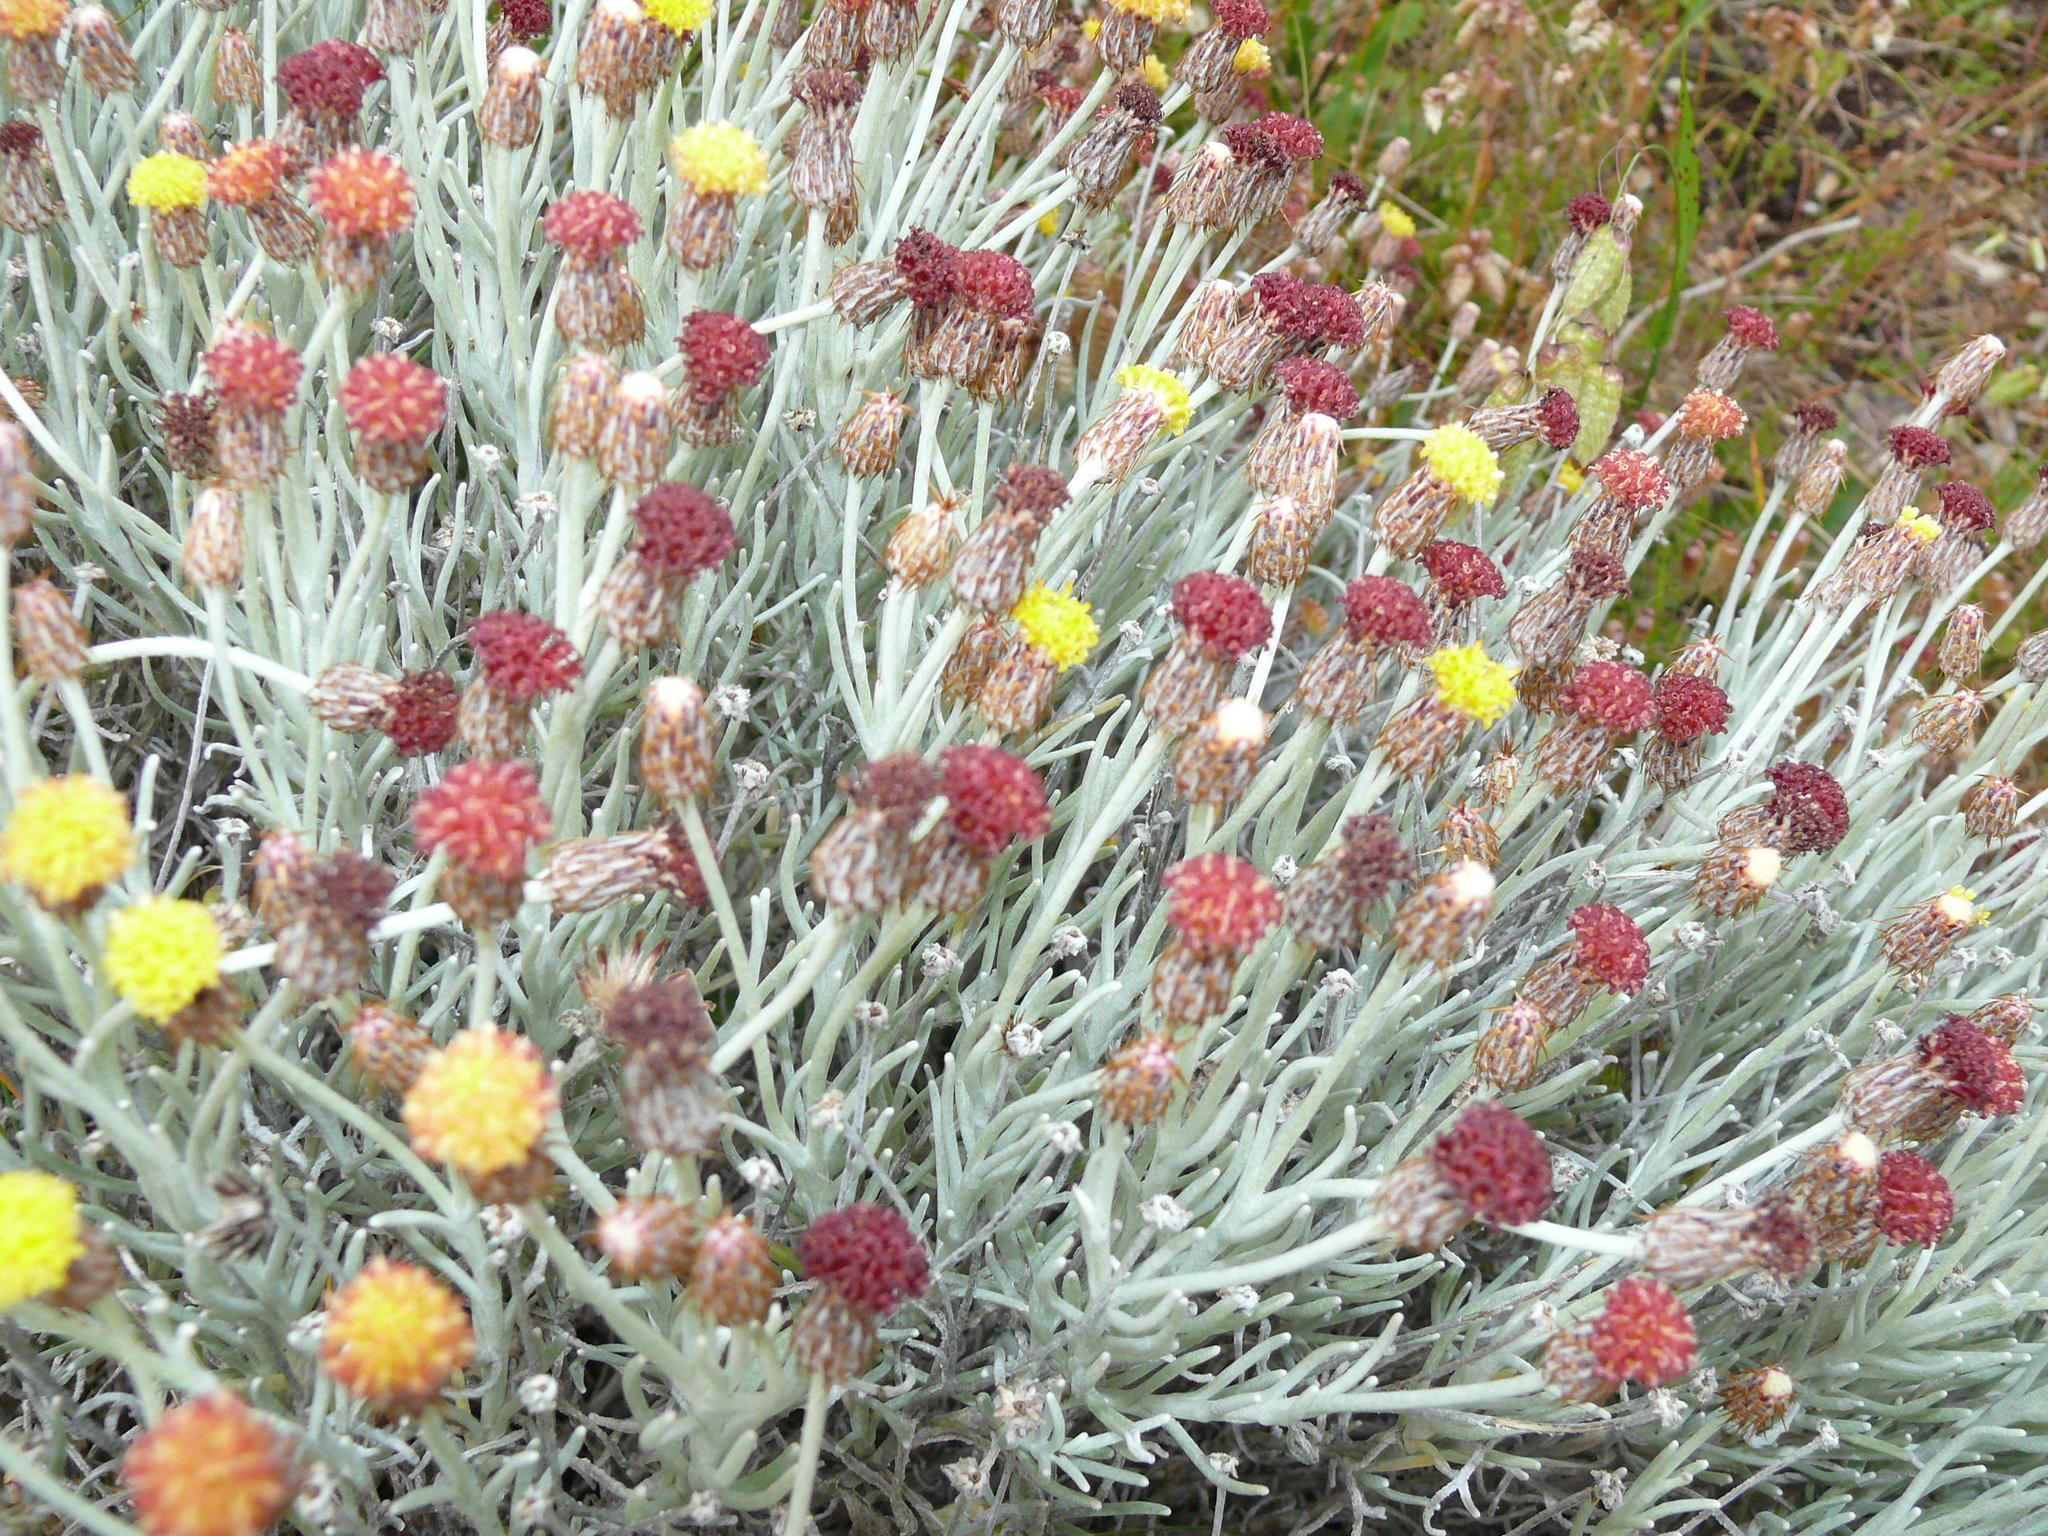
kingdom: Plantae
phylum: Tracheophyta
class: Magnoliopsida
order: Asterales
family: Asteraceae
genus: Syncarpha
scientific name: Syncarpha gnaphaloides
